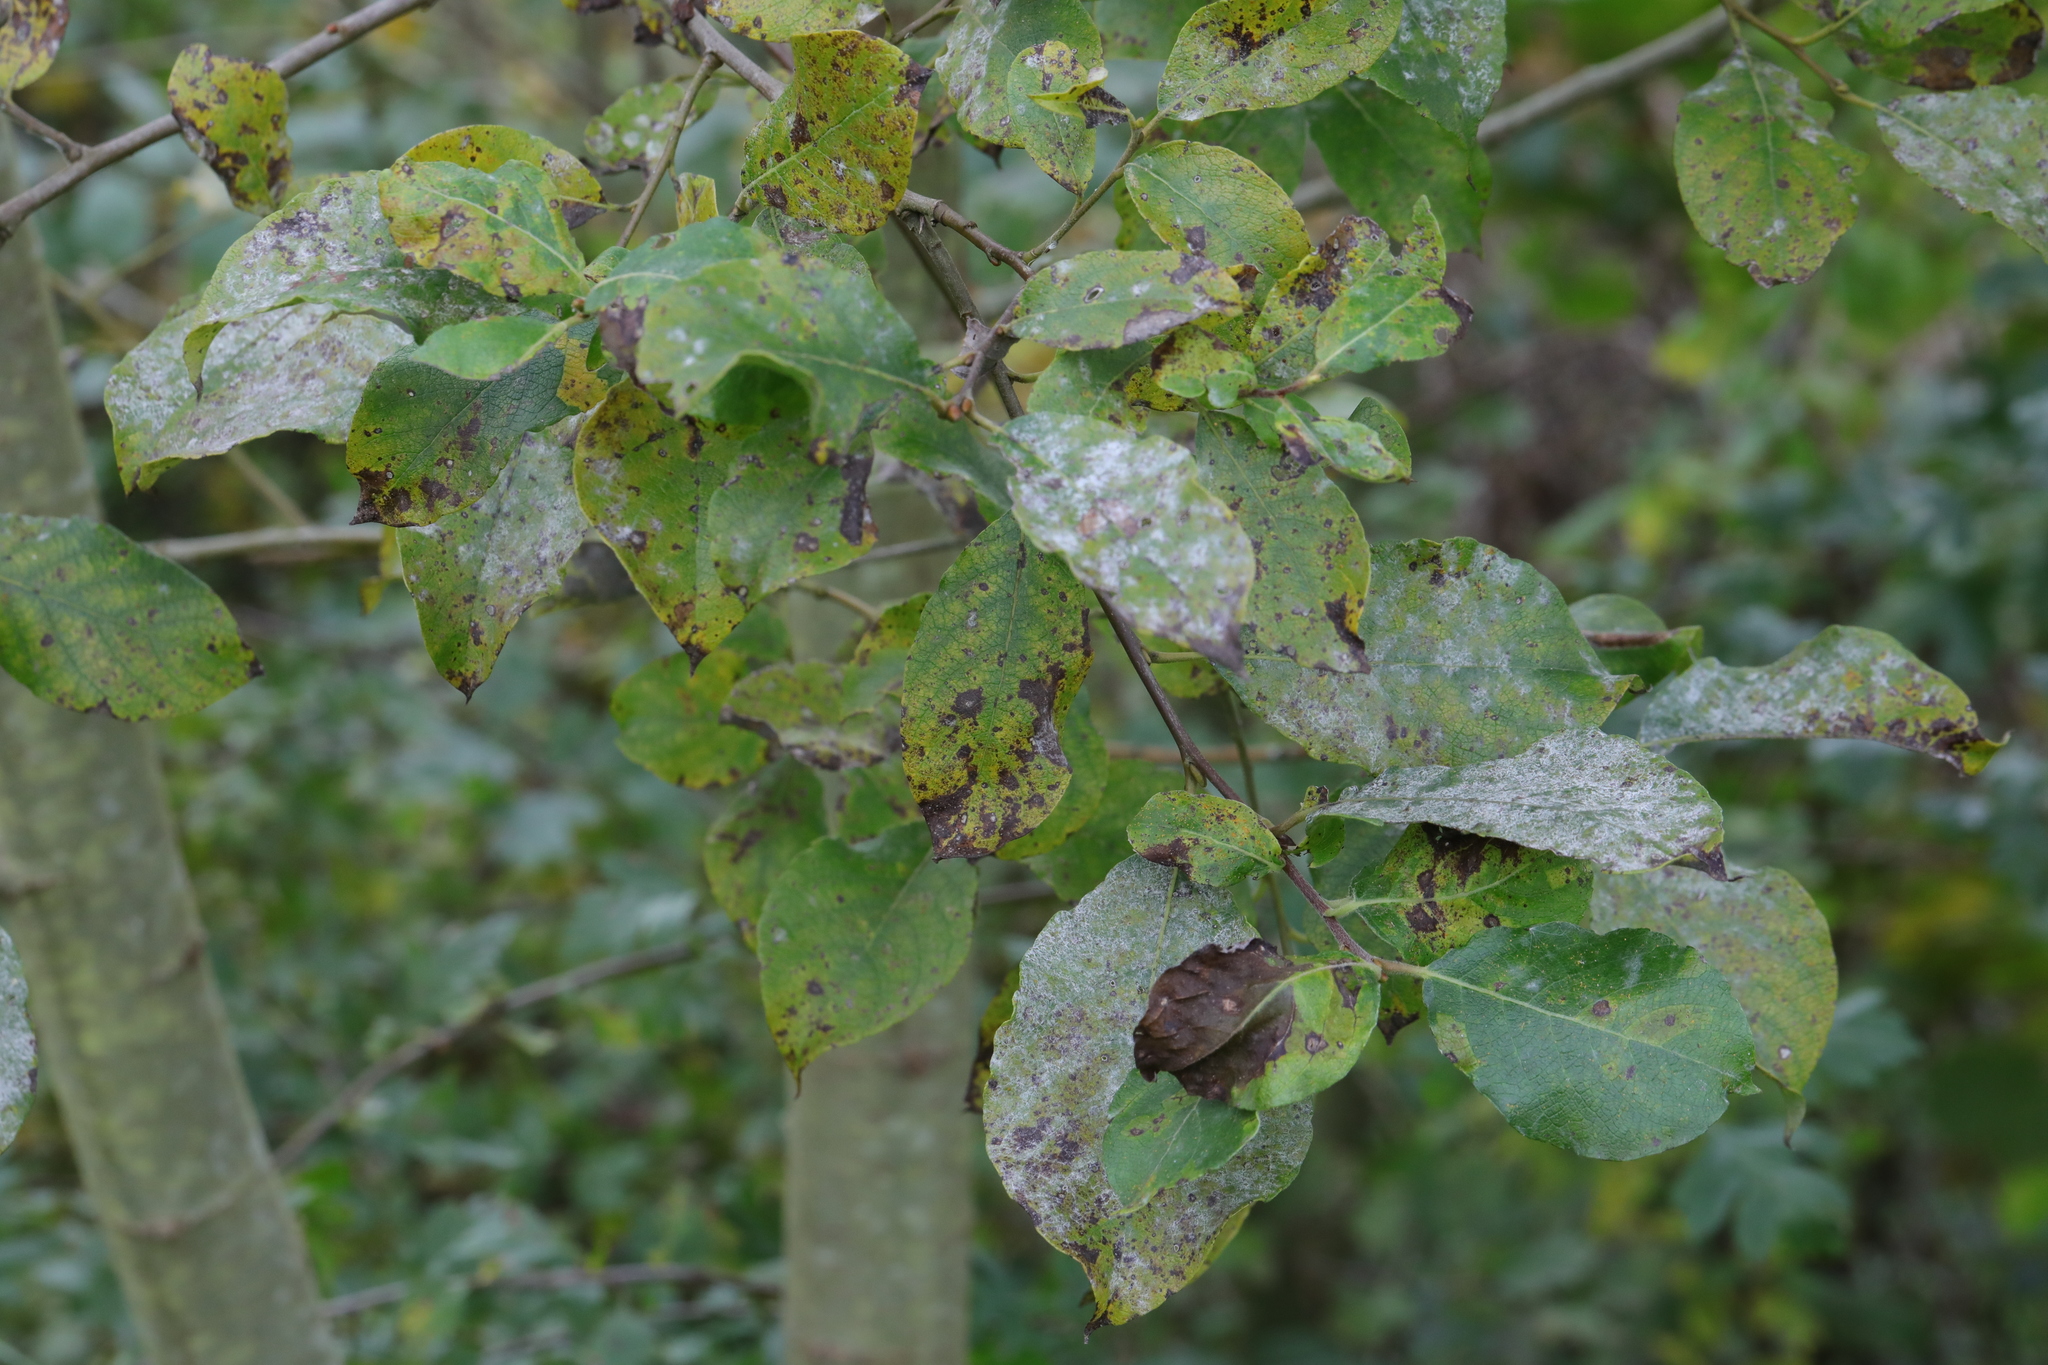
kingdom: Plantae
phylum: Tracheophyta
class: Magnoliopsida
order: Malpighiales
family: Salicaceae
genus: Salix
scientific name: Salix caprea
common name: Goat willow
